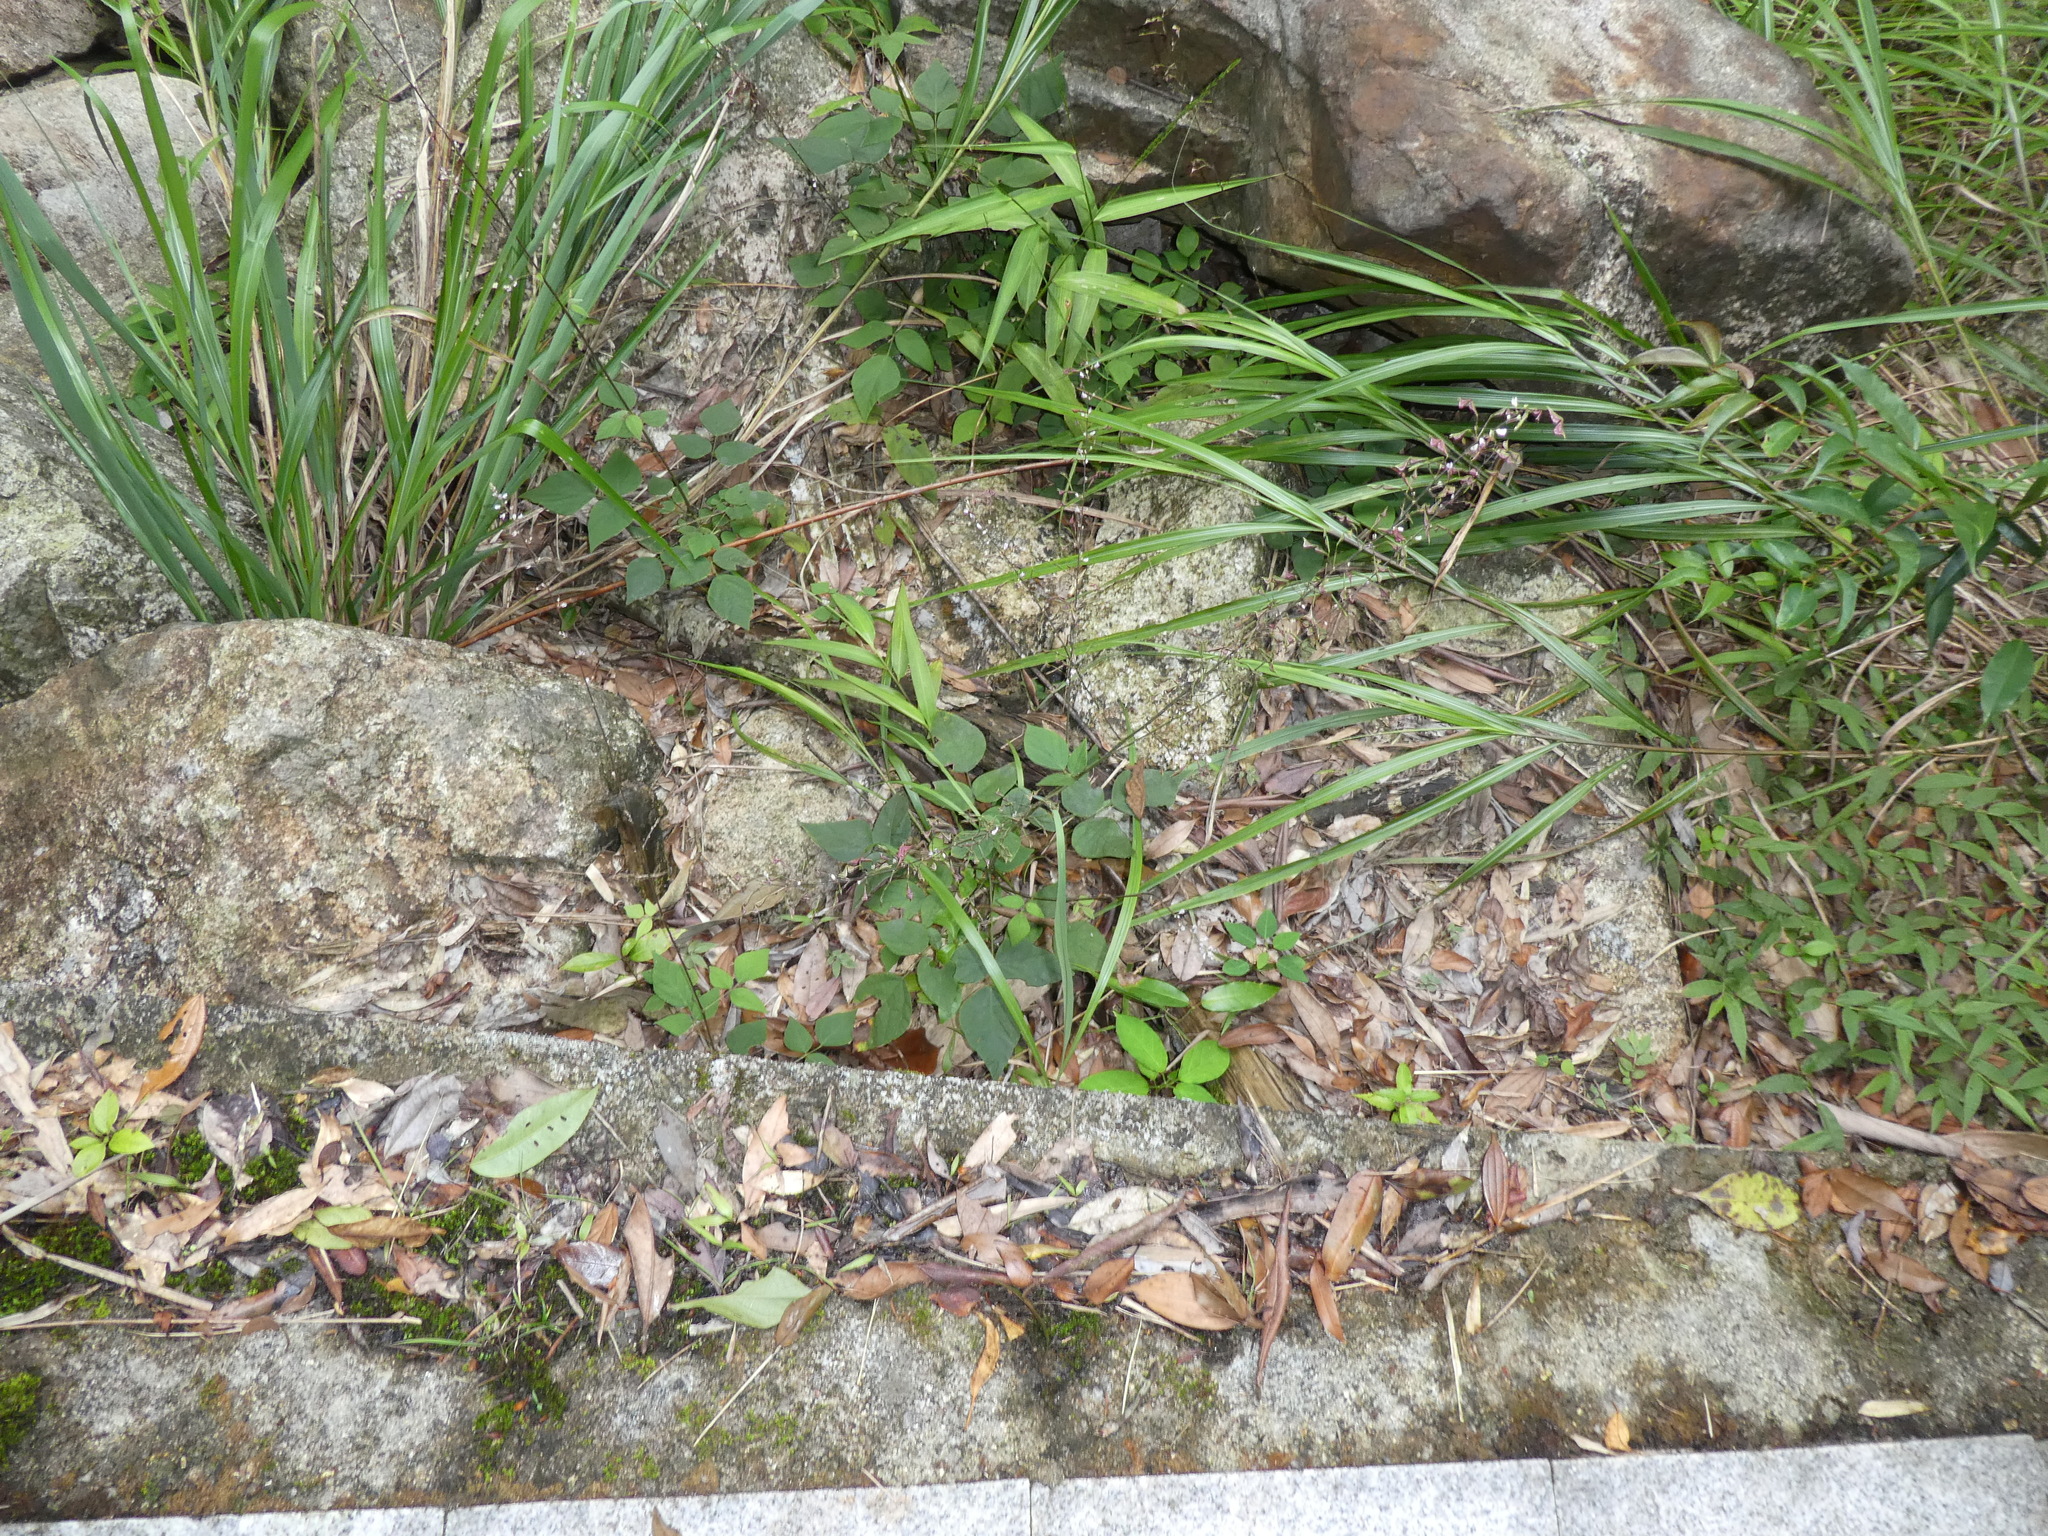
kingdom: Plantae
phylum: Tracheophyta
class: Magnoliopsida
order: Fabales
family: Fabaceae
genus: Hylodesmum
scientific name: Hylodesmum podocarpum
